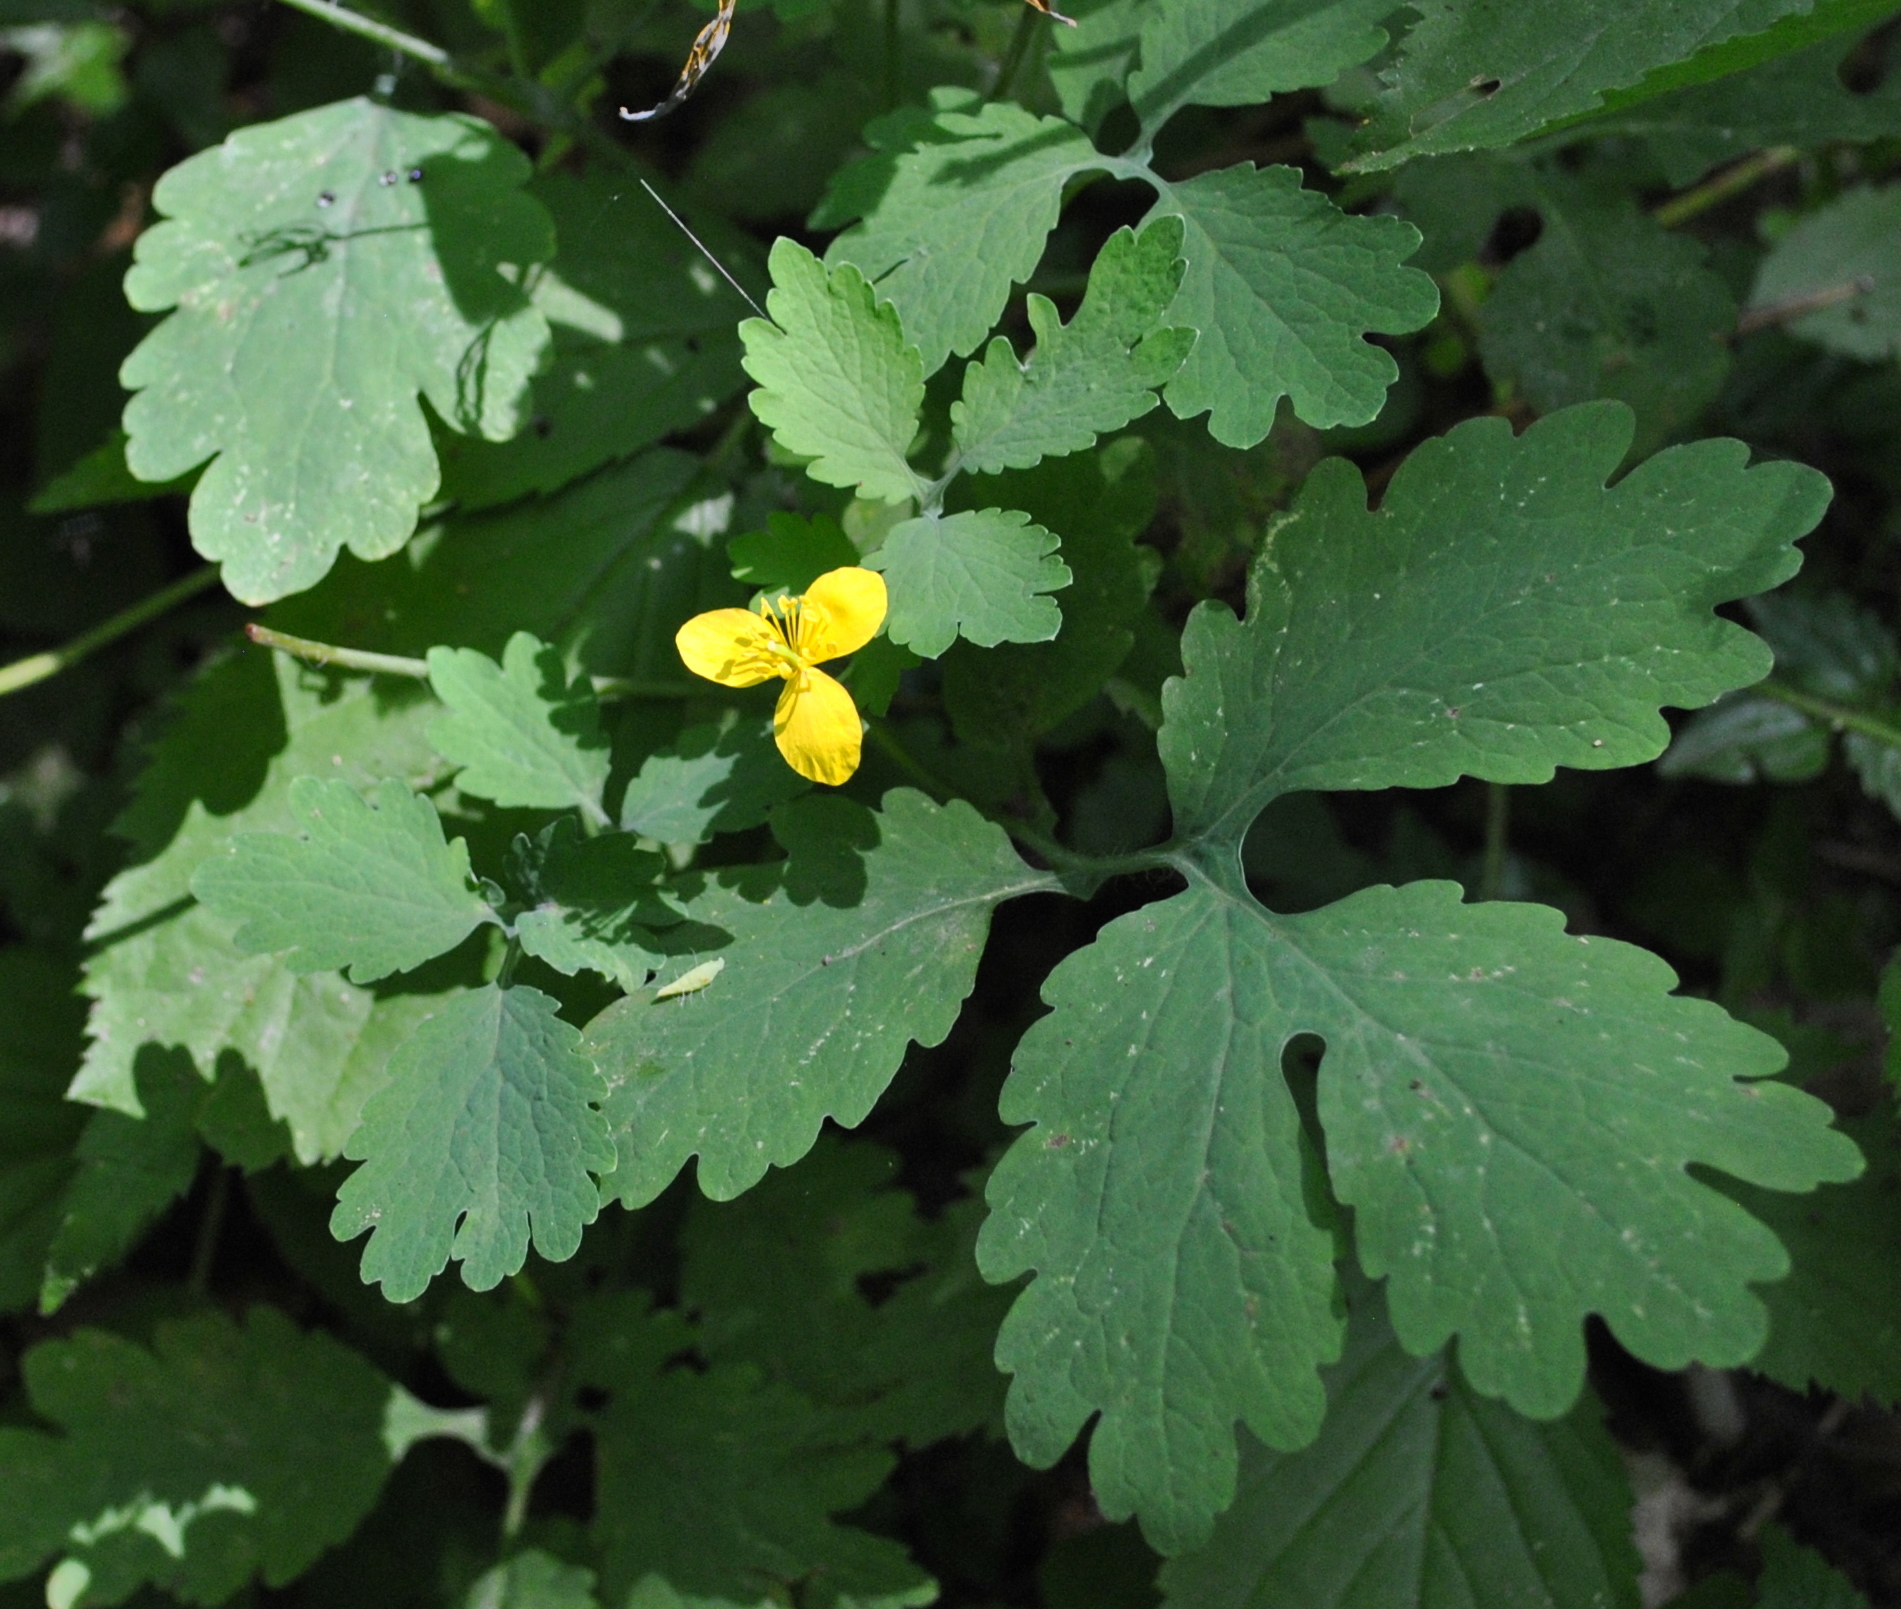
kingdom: Plantae
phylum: Tracheophyta
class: Magnoliopsida
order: Ranunculales
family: Papaveraceae
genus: Chelidonium
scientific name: Chelidonium majus
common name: Greater celandine
